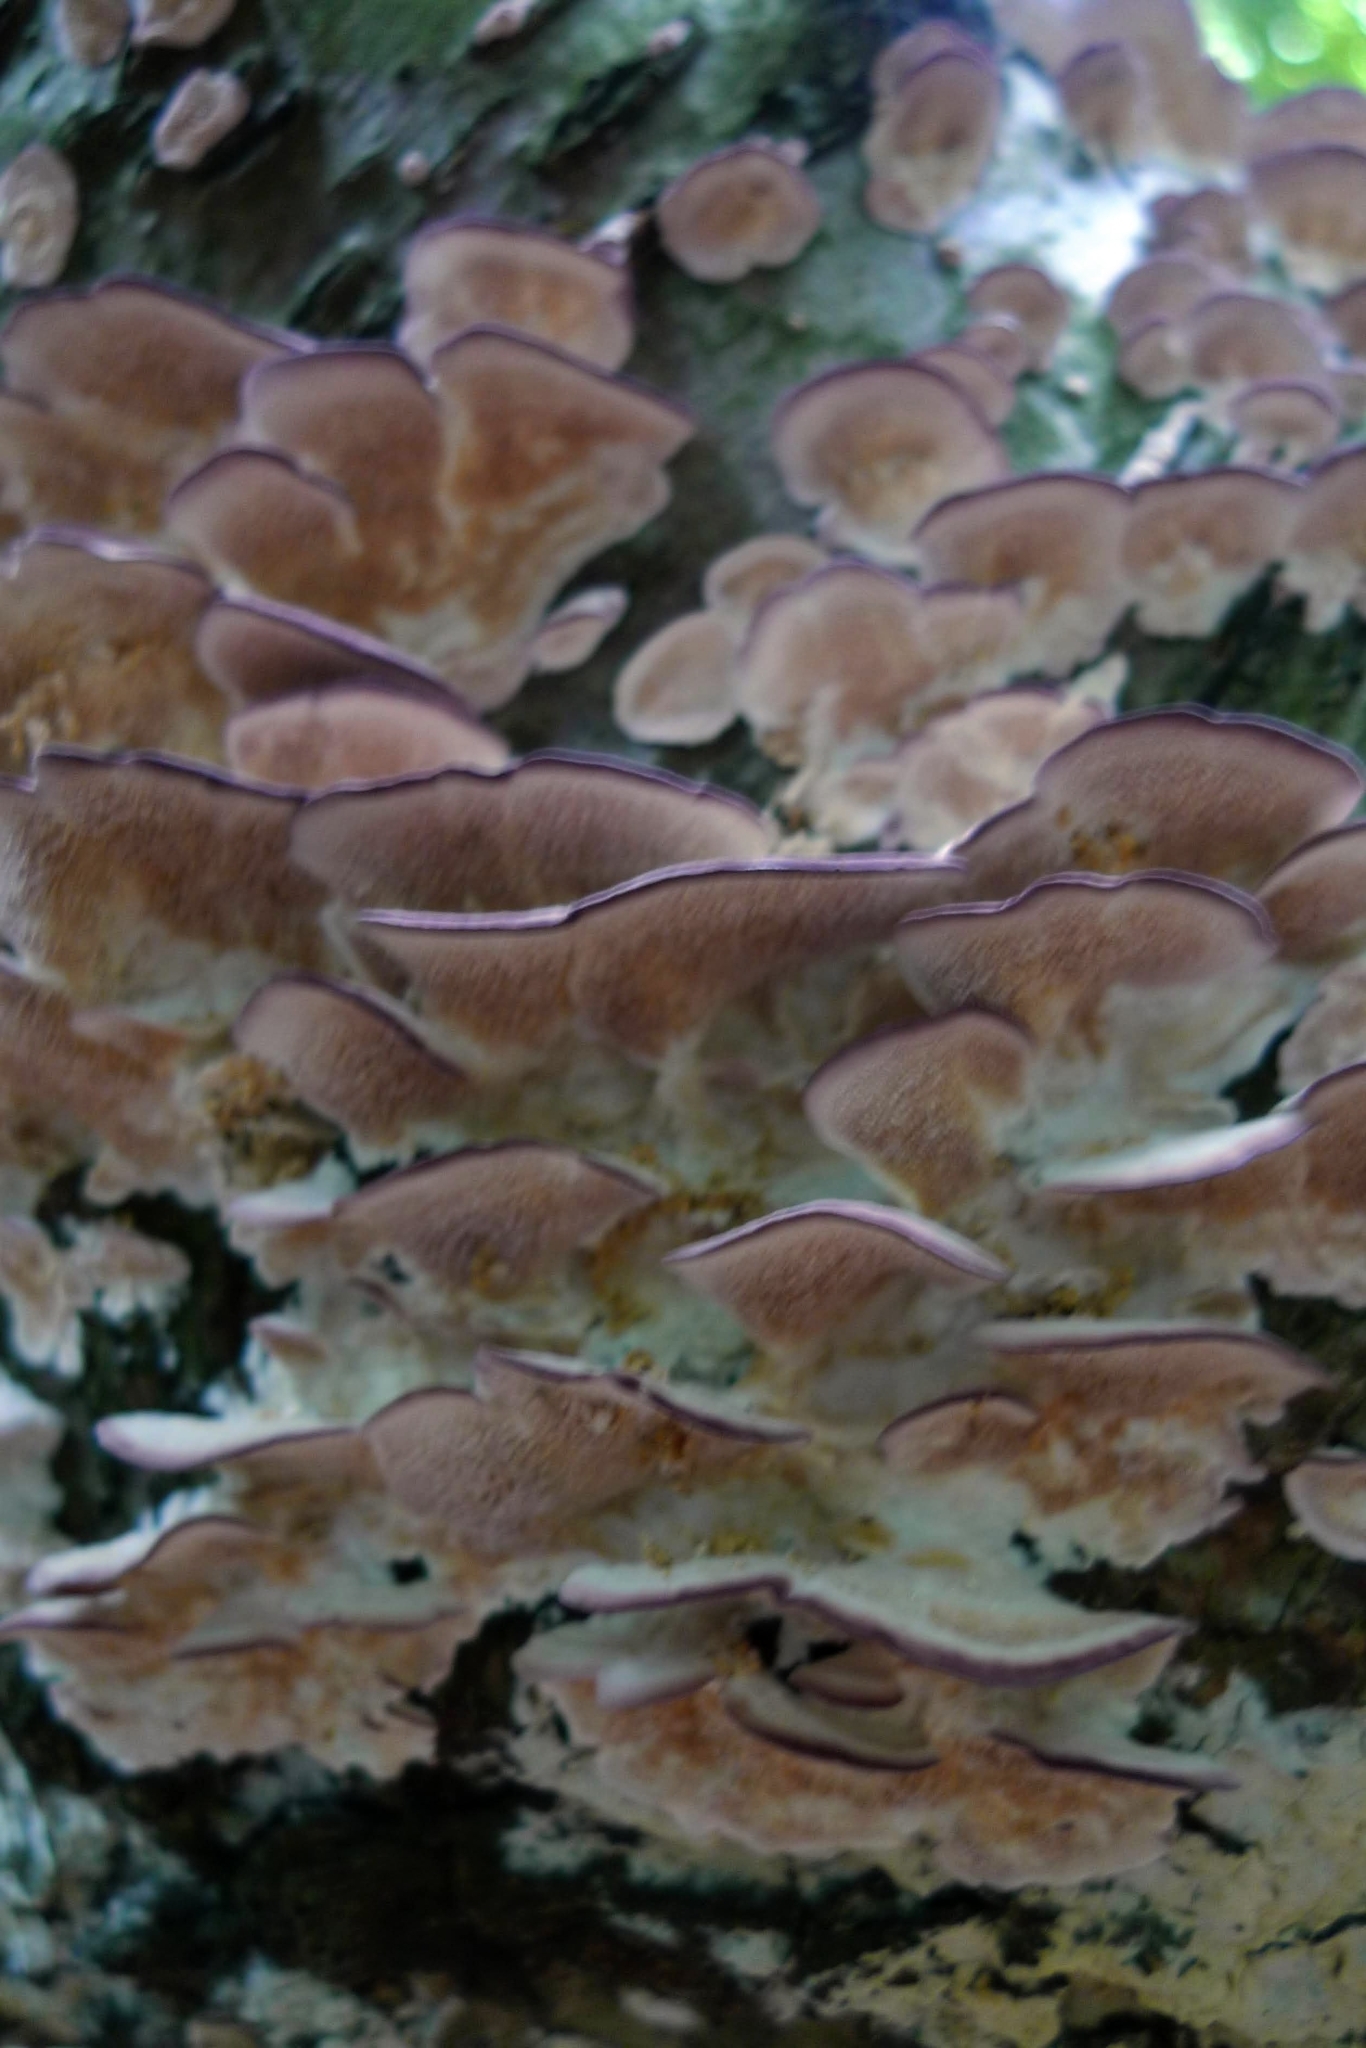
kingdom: Fungi
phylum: Basidiomycota
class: Agaricomycetes
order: Hymenochaetales
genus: Trichaptum
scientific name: Trichaptum biforme
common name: Violet-toothed polypore
